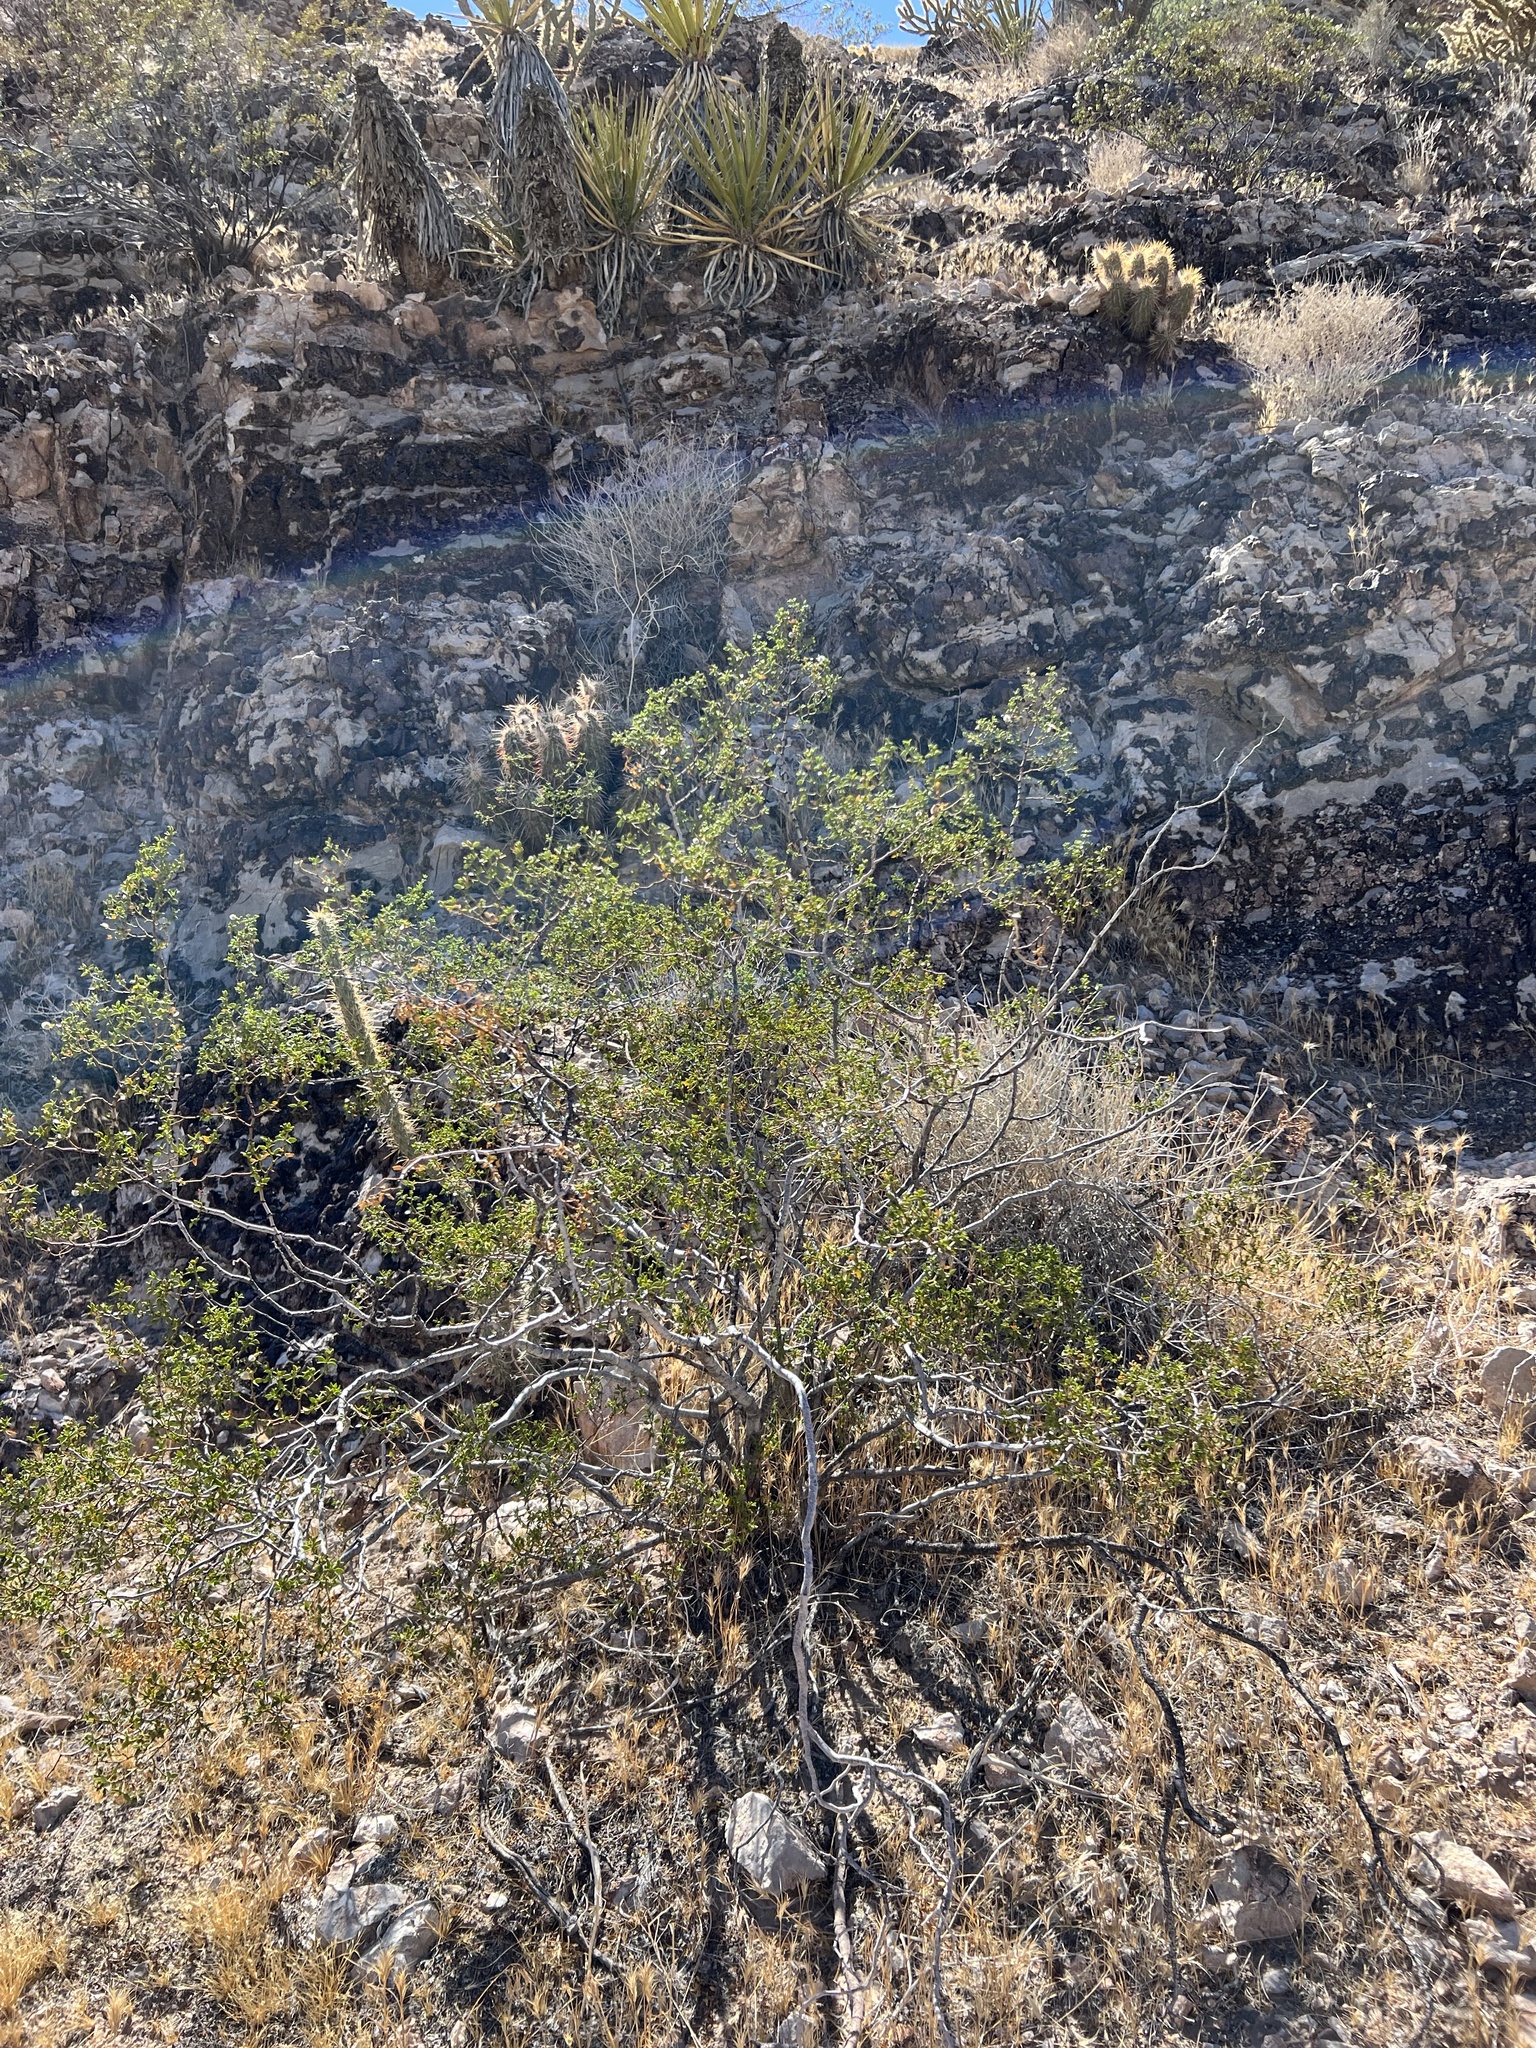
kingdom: Plantae
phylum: Tracheophyta
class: Magnoliopsida
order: Zygophyllales
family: Zygophyllaceae
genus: Larrea
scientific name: Larrea tridentata
